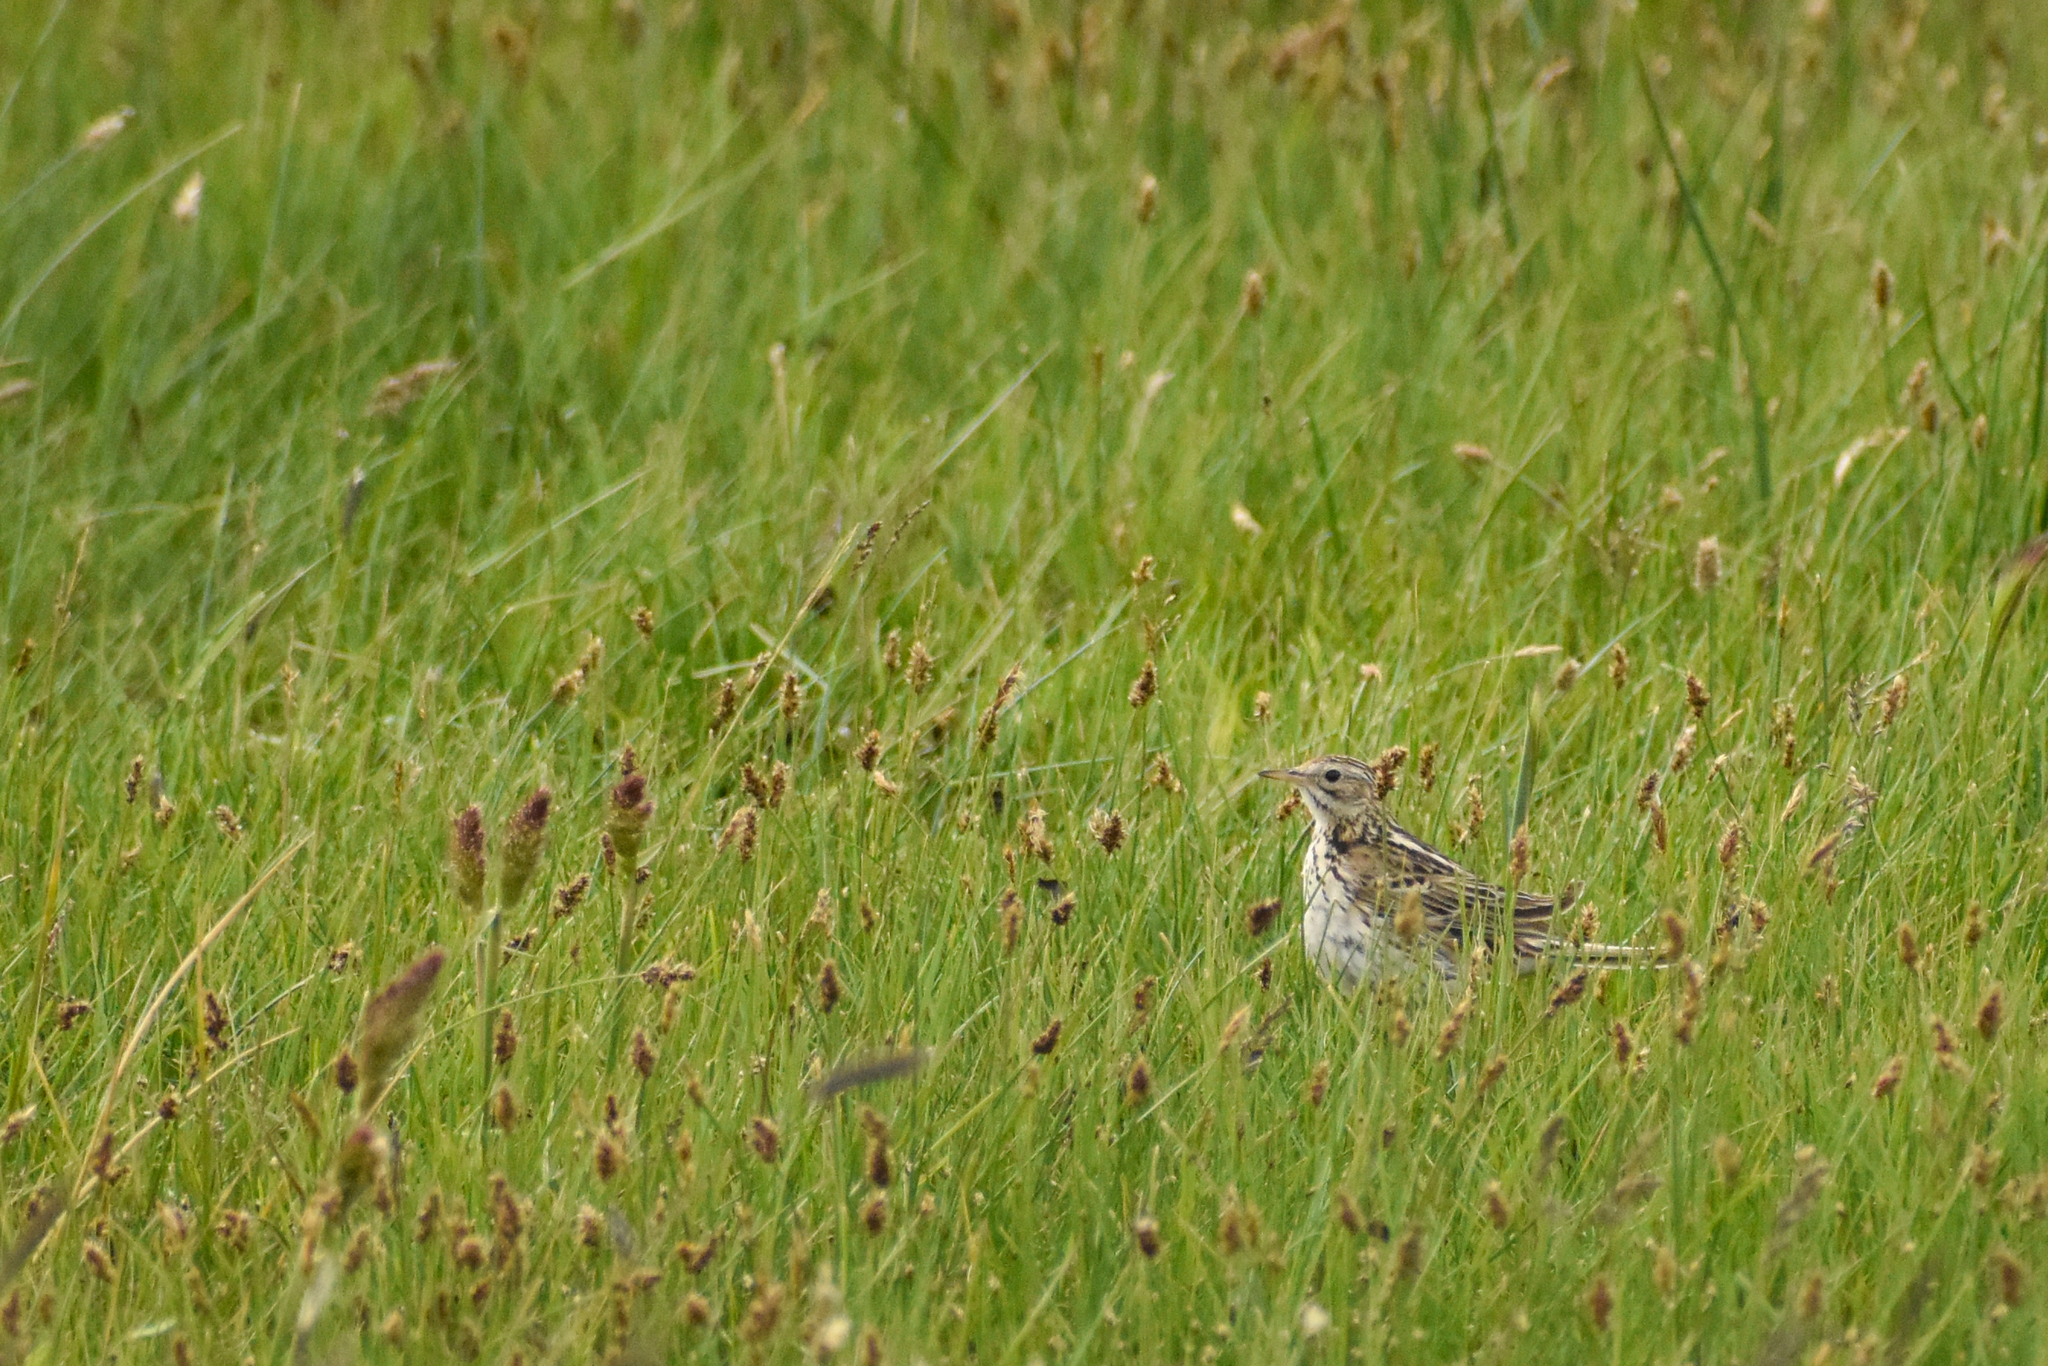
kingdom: Animalia
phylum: Chordata
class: Aves
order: Passeriformes
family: Motacillidae
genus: Anthus
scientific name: Anthus correndera
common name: Correndera pipit
